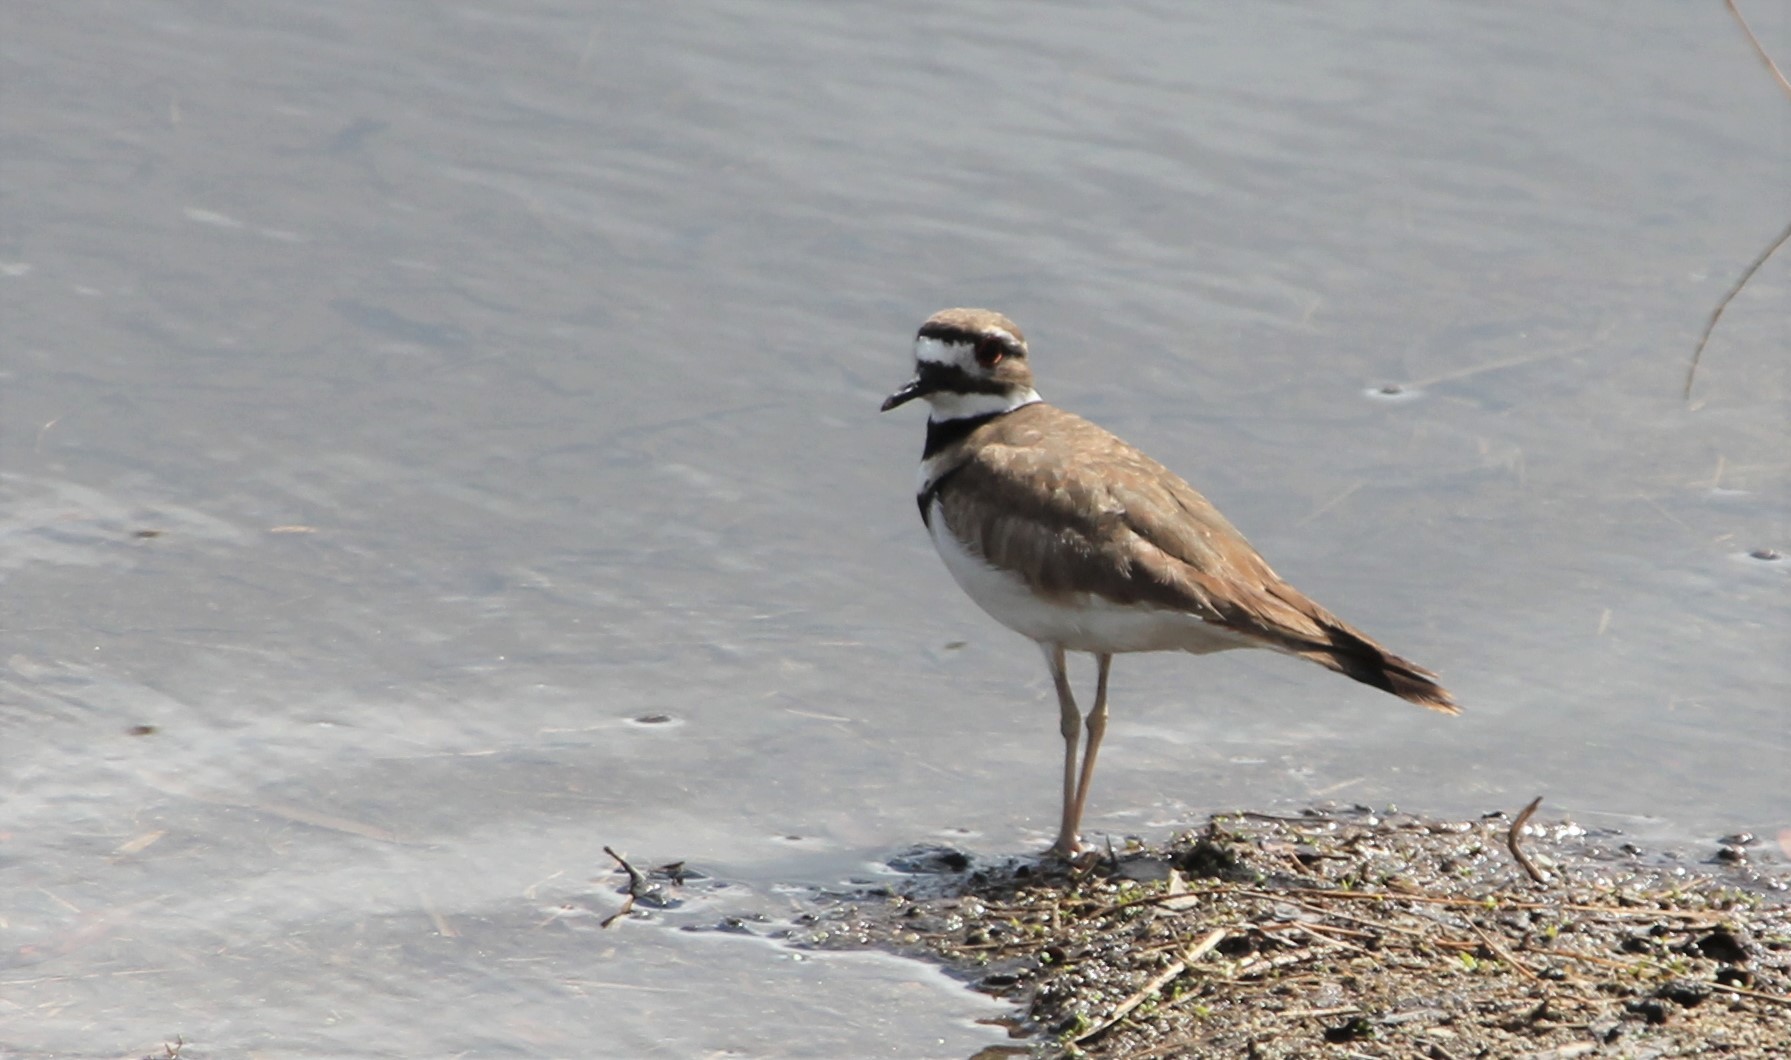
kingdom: Animalia
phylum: Chordata
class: Aves
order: Charadriiformes
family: Charadriidae
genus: Charadrius
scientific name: Charadrius vociferus
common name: Killdeer
